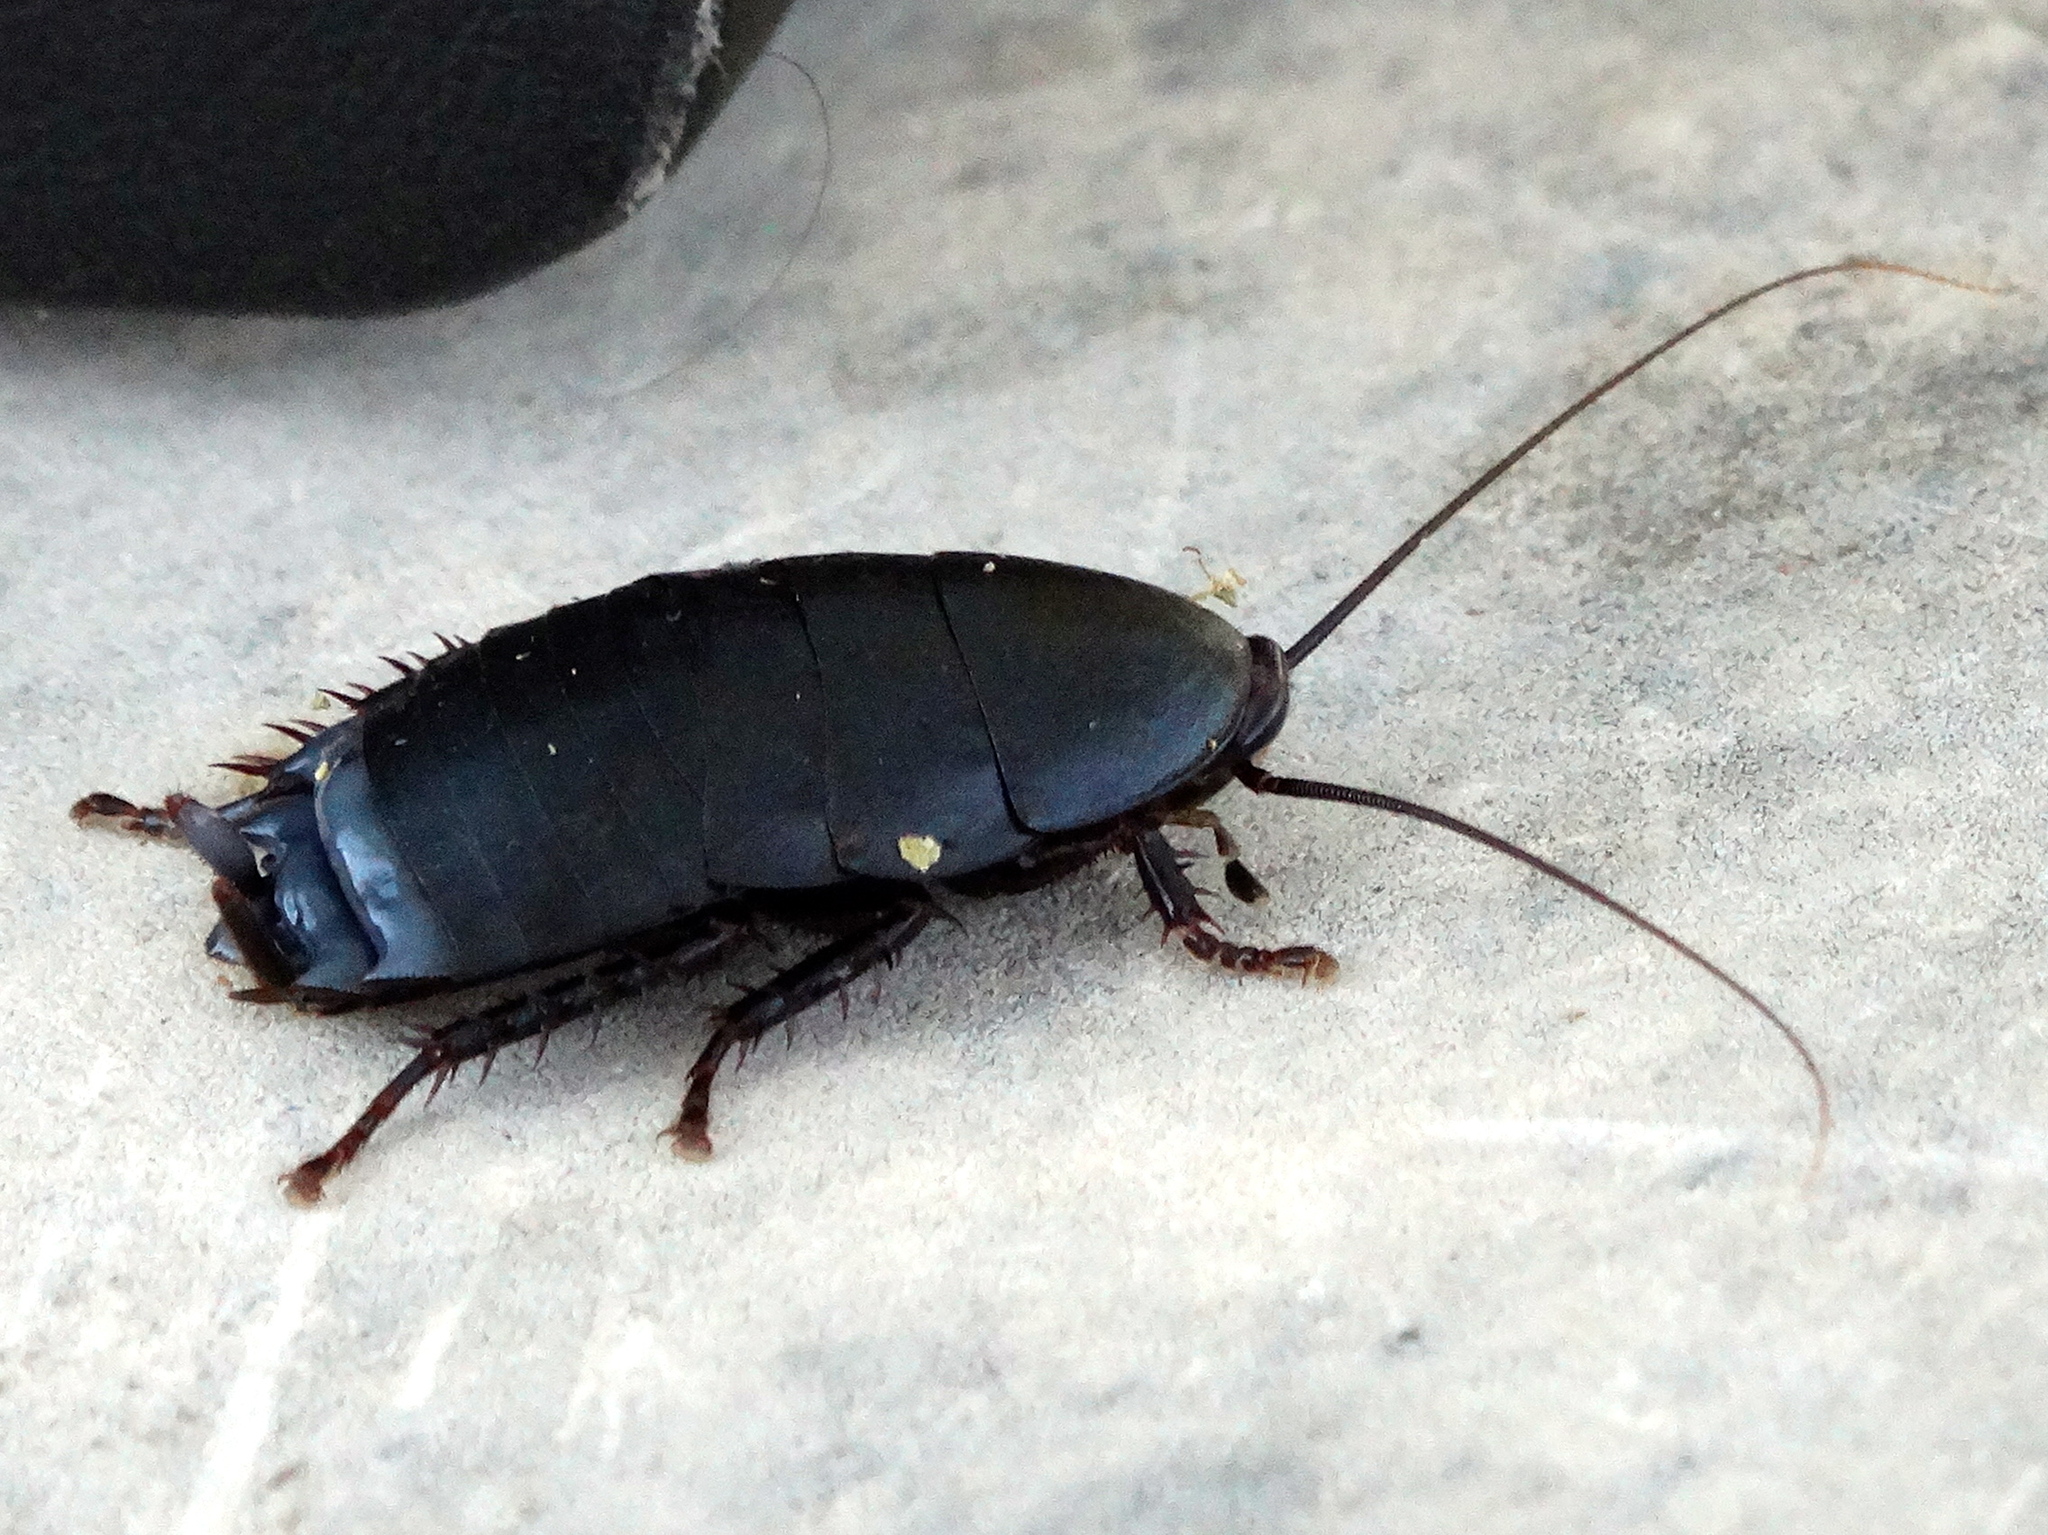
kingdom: Animalia
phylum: Arthropoda
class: Insecta
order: Blattodea
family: Ectobiidae
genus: Nyctibora
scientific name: Nyctibora tetrasticta
